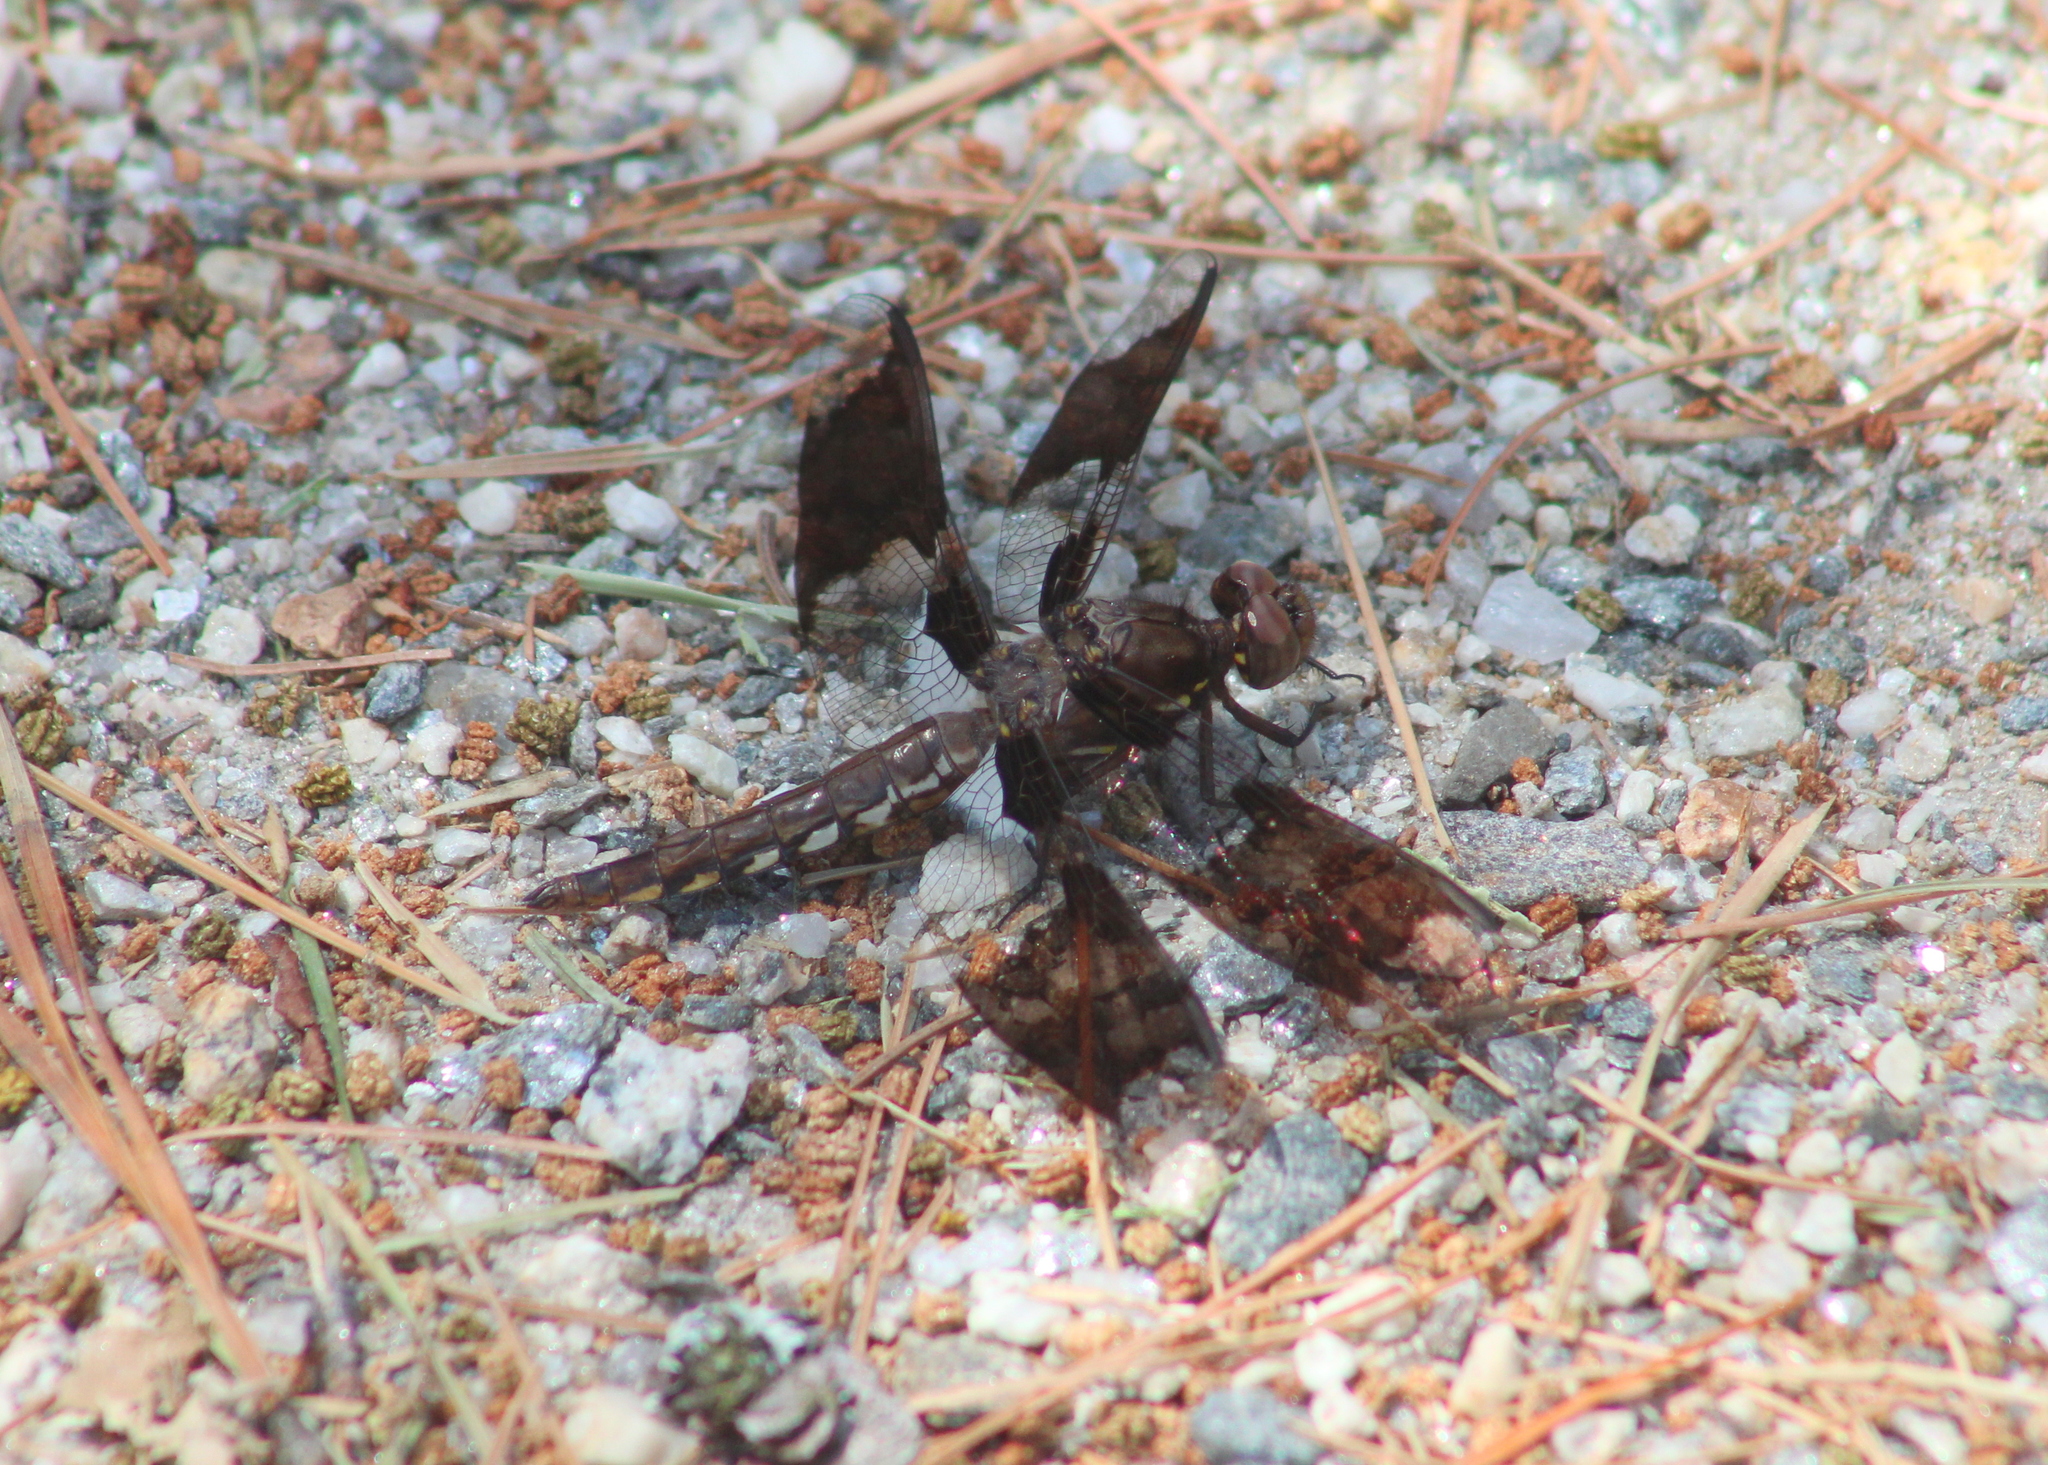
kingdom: Animalia
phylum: Arthropoda
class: Insecta
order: Odonata
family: Libellulidae
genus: Plathemis
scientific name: Plathemis lydia
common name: Common whitetail
